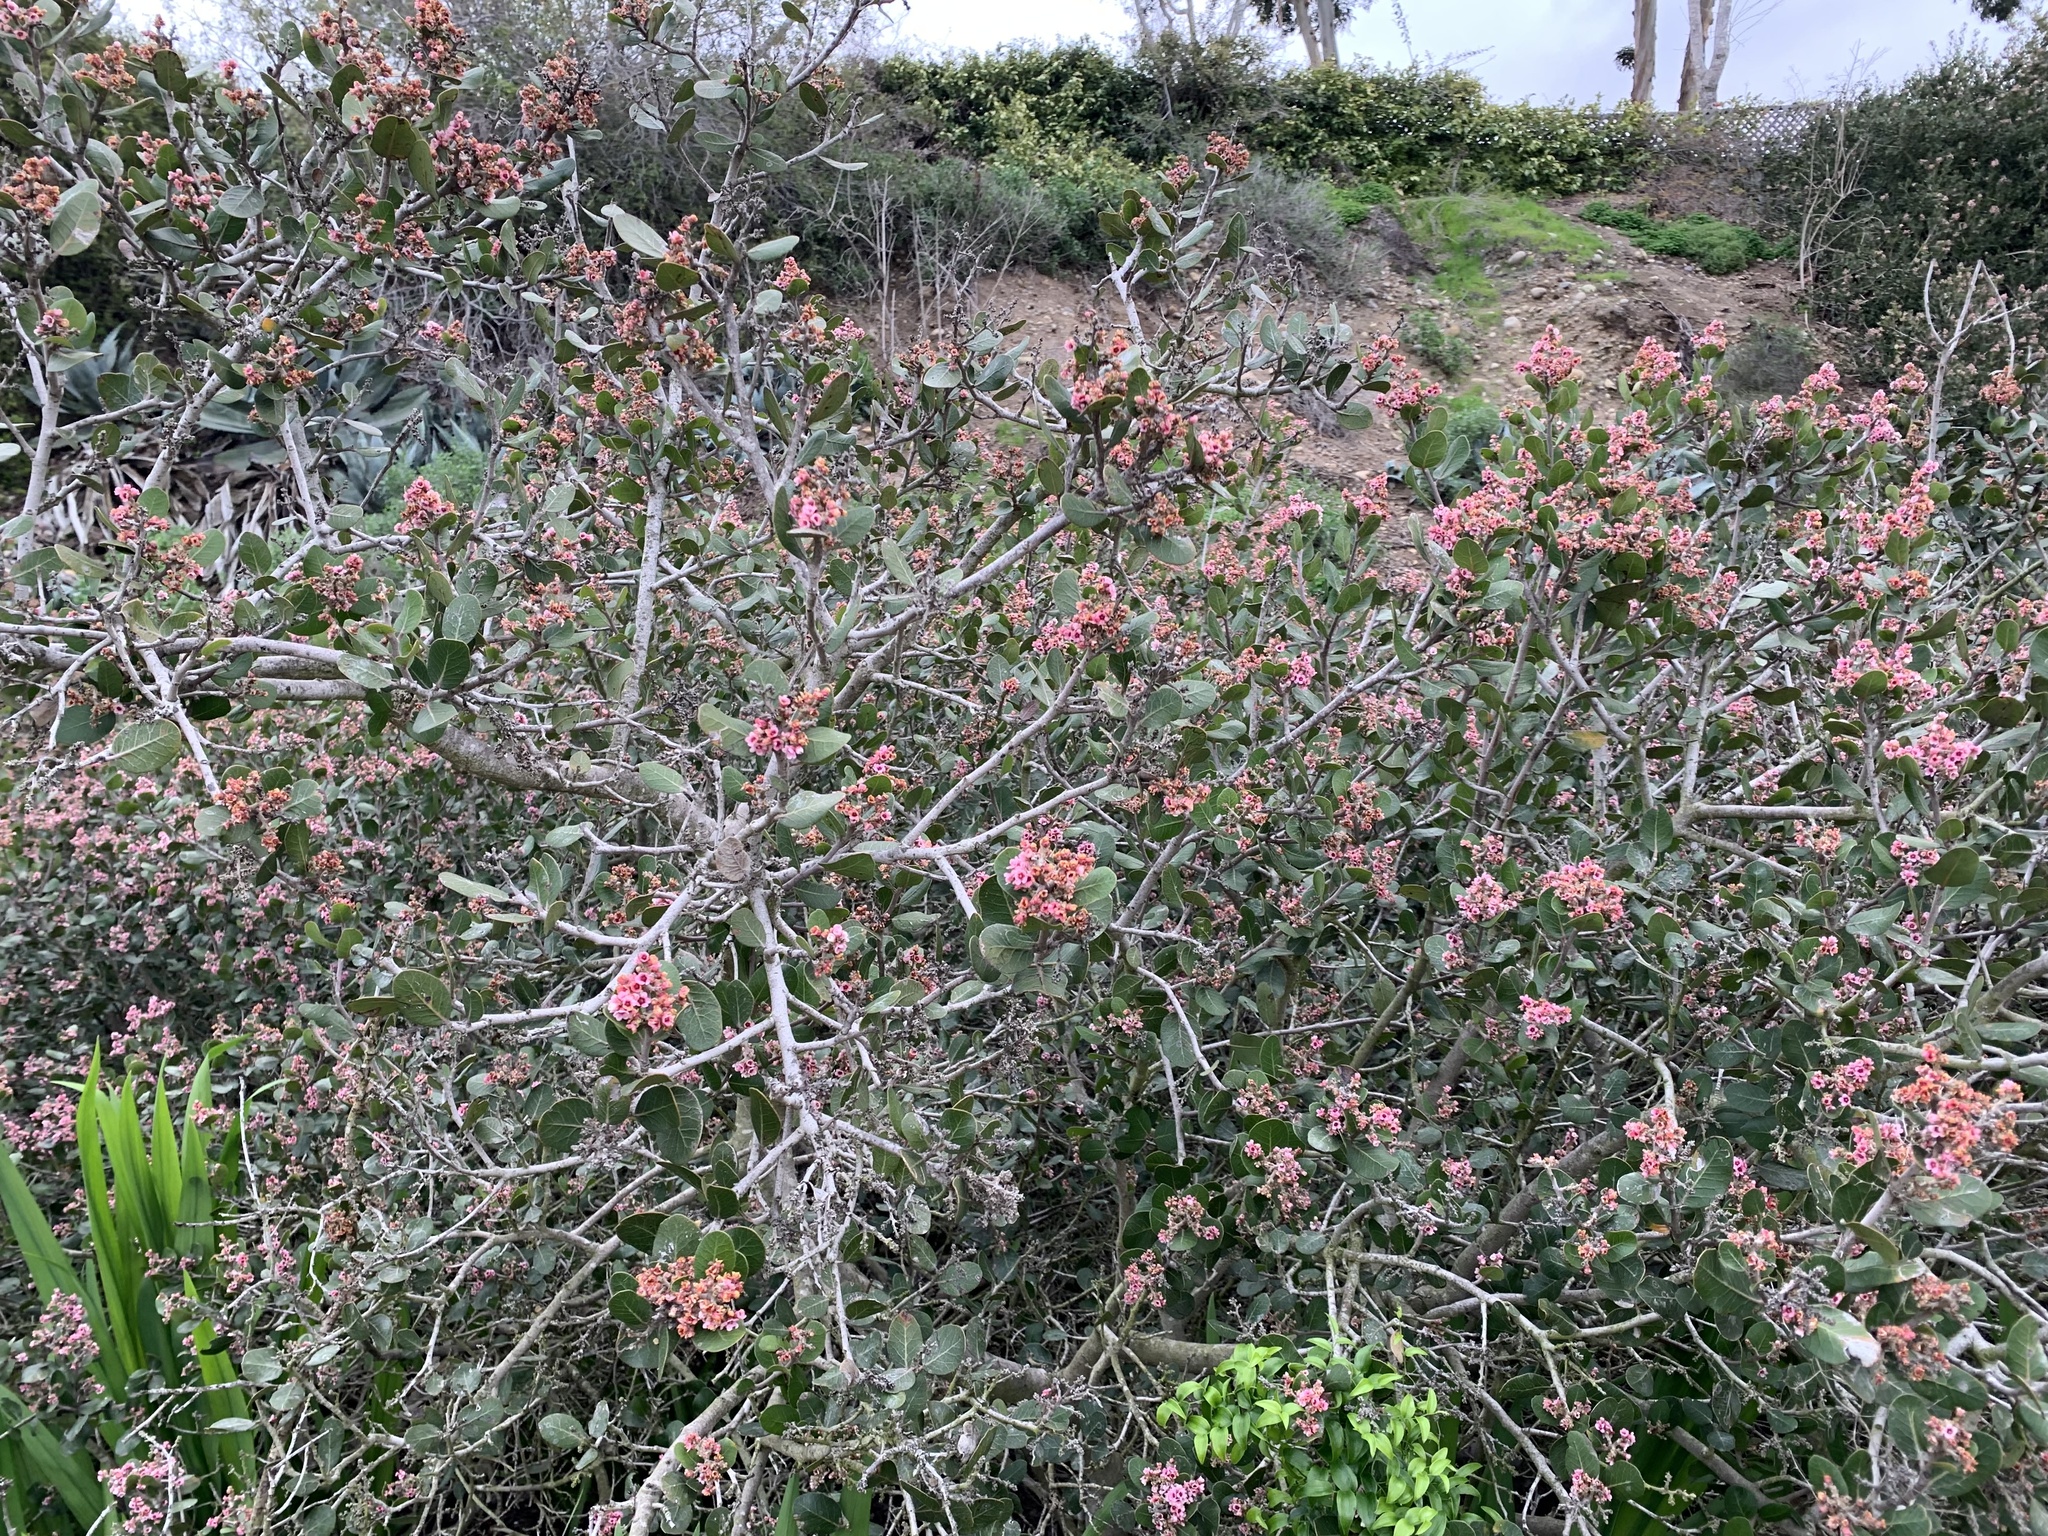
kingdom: Plantae
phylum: Tracheophyta
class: Magnoliopsida
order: Sapindales
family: Anacardiaceae
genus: Rhus
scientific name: Rhus integrifolia
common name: Lemonade sumac
